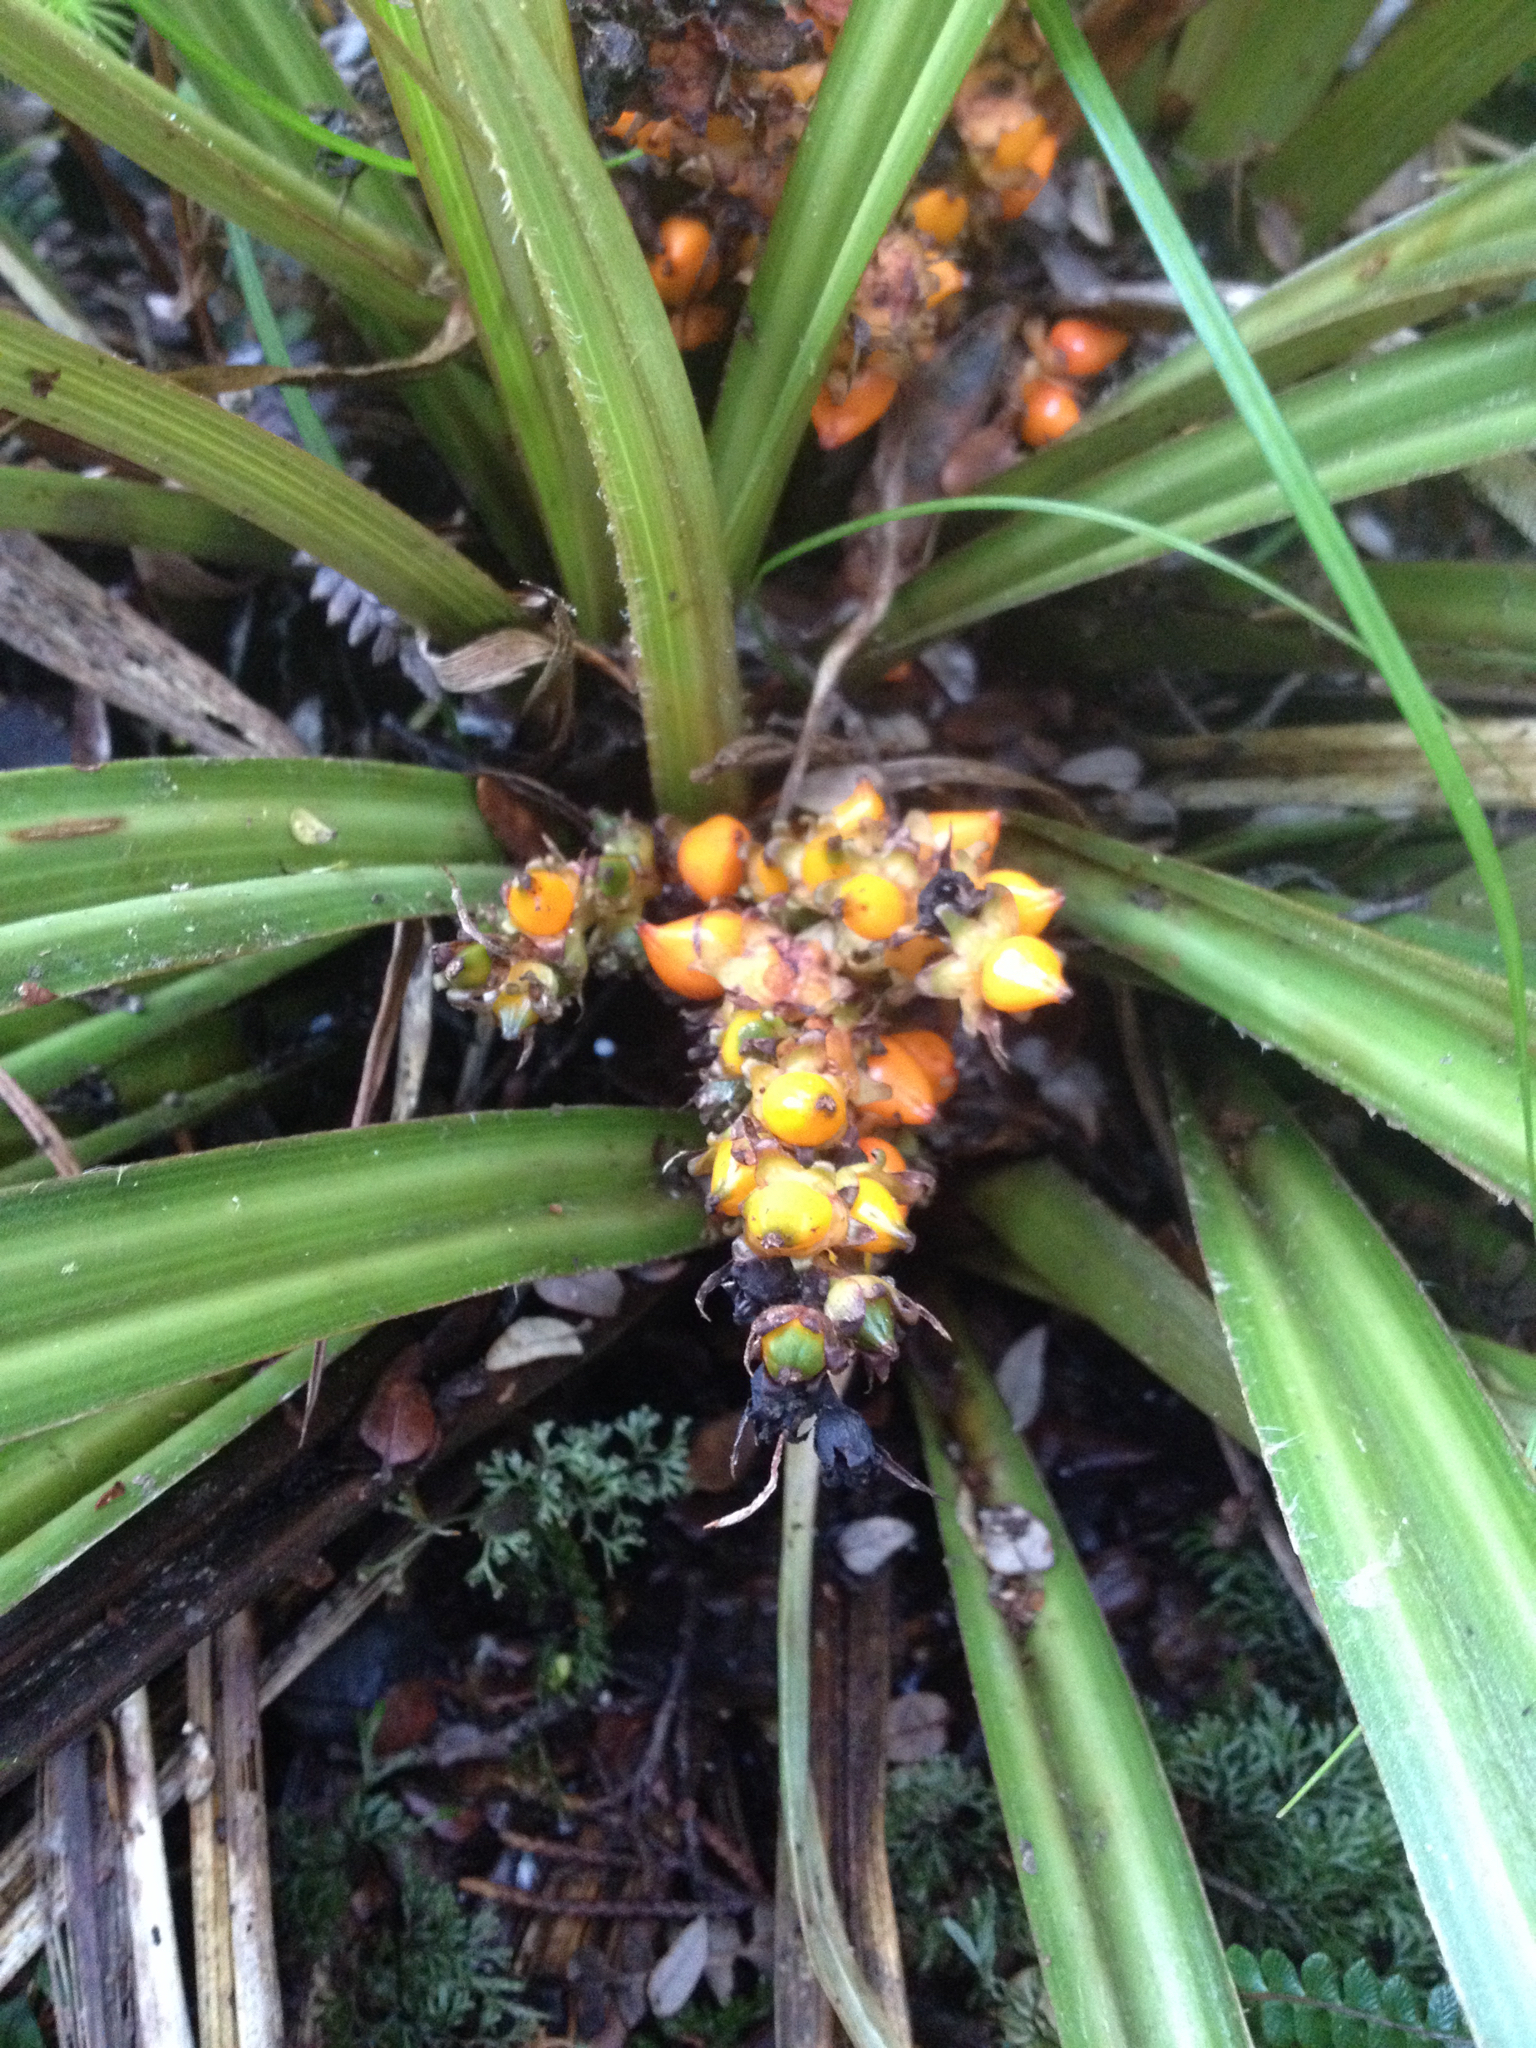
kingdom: Plantae
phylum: Tracheophyta
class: Liliopsida
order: Asparagales
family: Asteliaceae
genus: Astelia
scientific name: Astelia fragrans
